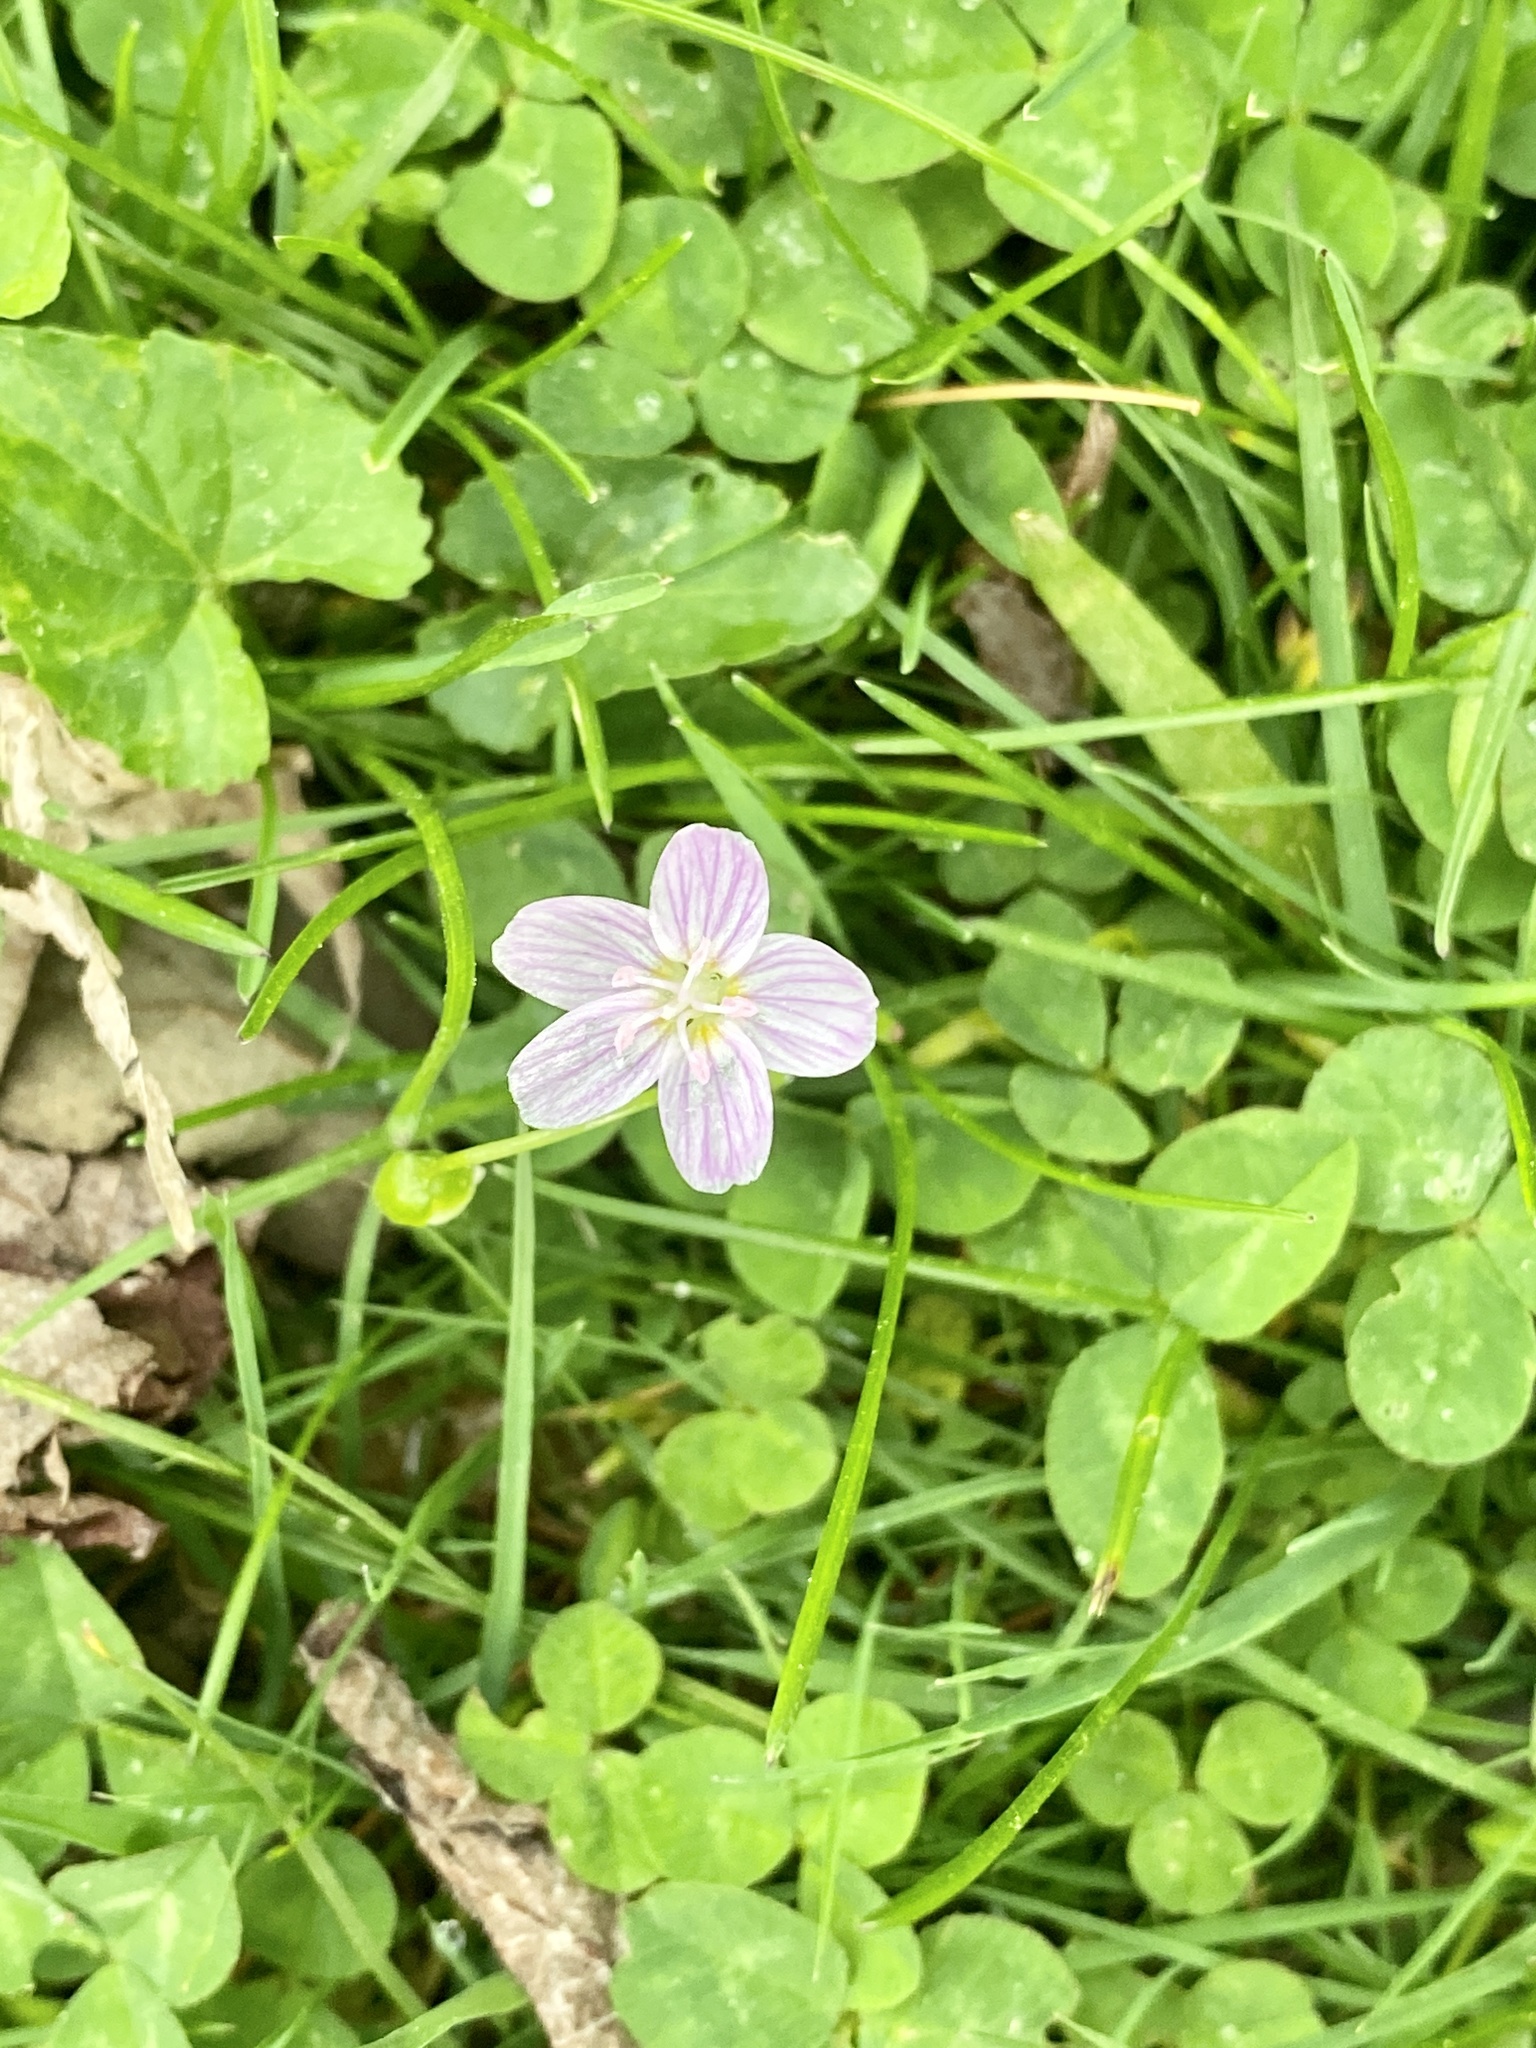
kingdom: Plantae
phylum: Tracheophyta
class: Magnoliopsida
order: Caryophyllales
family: Montiaceae
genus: Claytonia
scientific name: Claytonia virginica
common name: Virginia springbeauty
